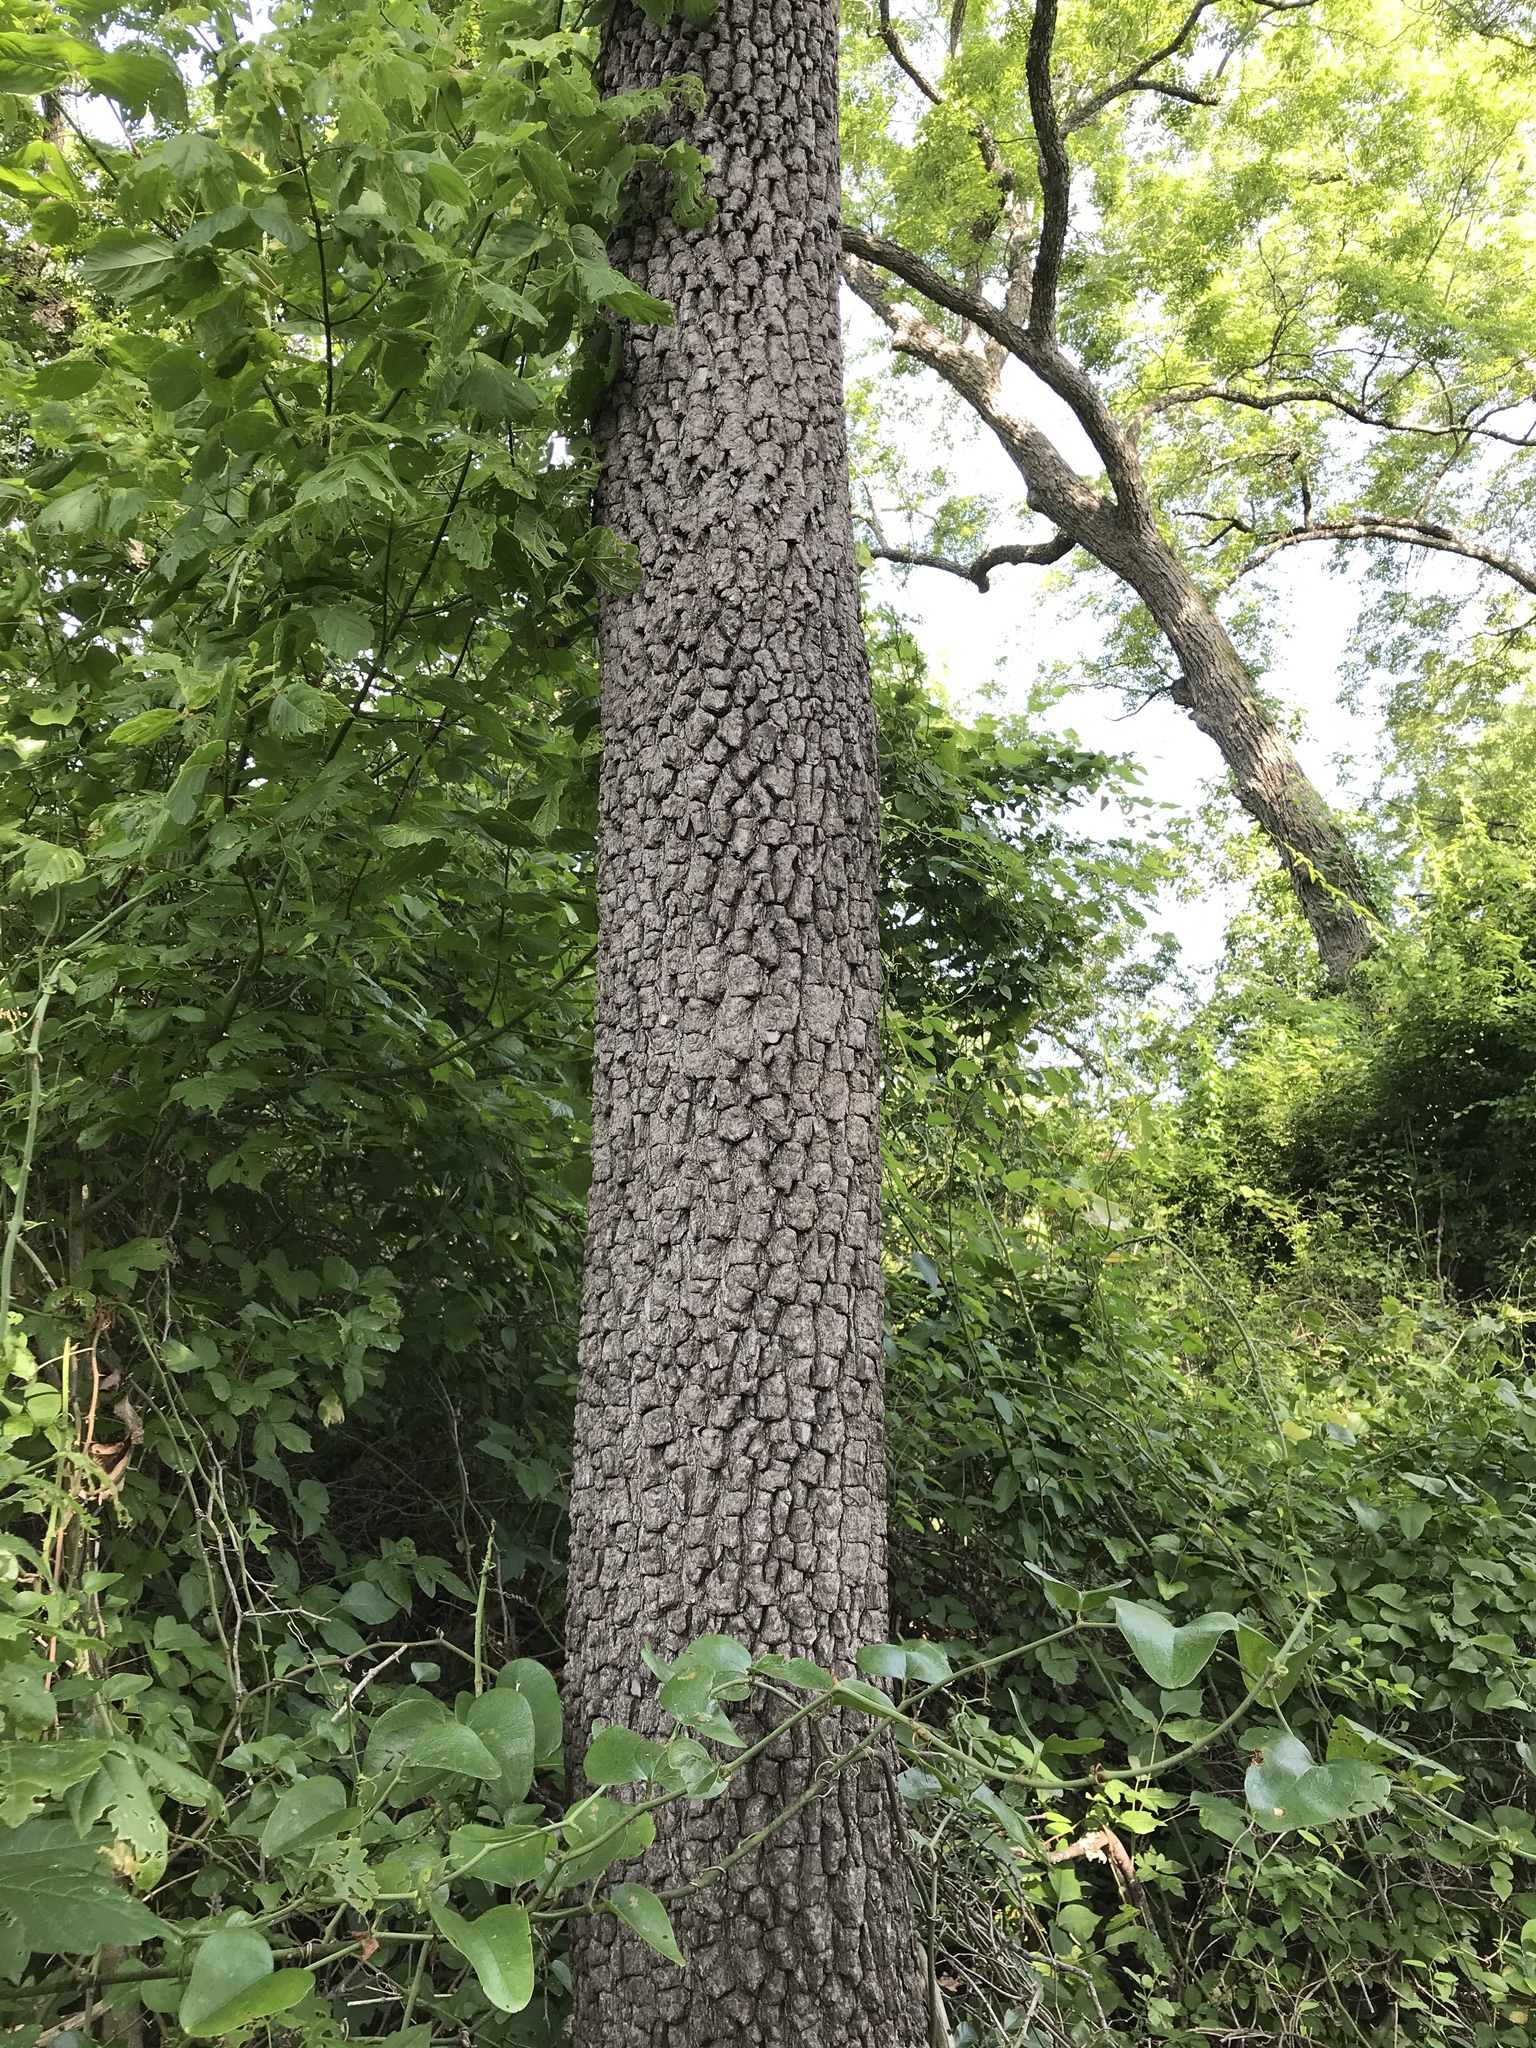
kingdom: Plantae
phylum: Tracheophyta
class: Magnoliopsida
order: Ericales
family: Ebenaceae
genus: Diospyros
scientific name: Diospyros virginiana
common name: Persimmon
